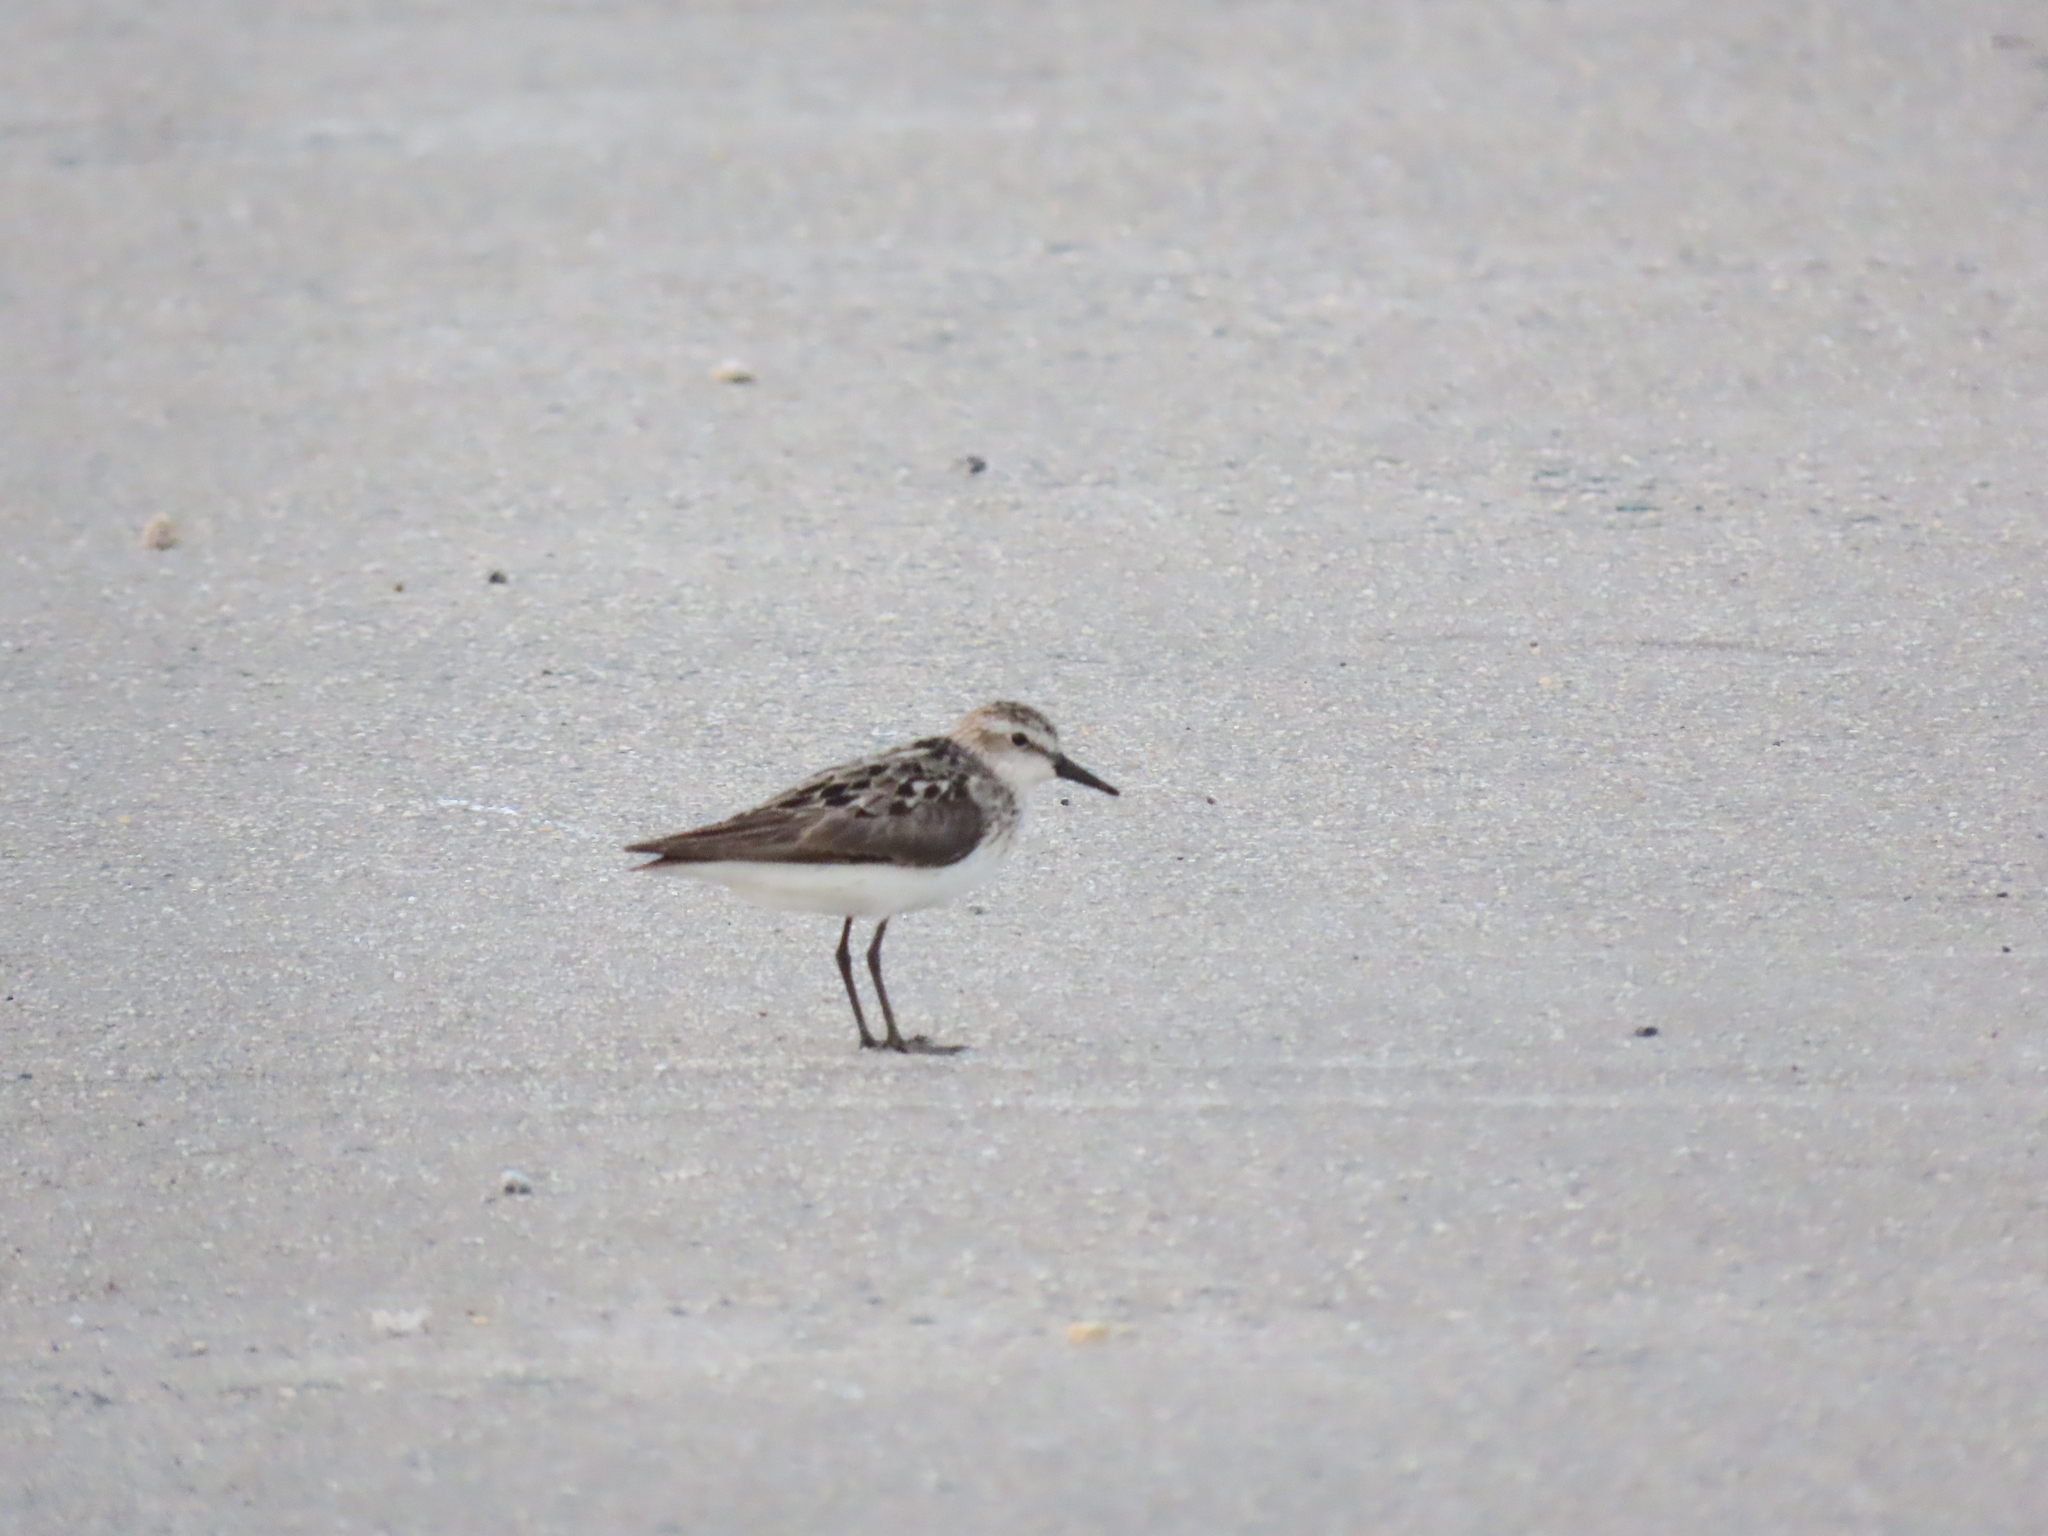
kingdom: Animalia
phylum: Chordata
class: Aves
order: Charadriiformes
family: Scolopacidae
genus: Calidris
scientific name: Calidris pusilla
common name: Semipalmated sandpiper
